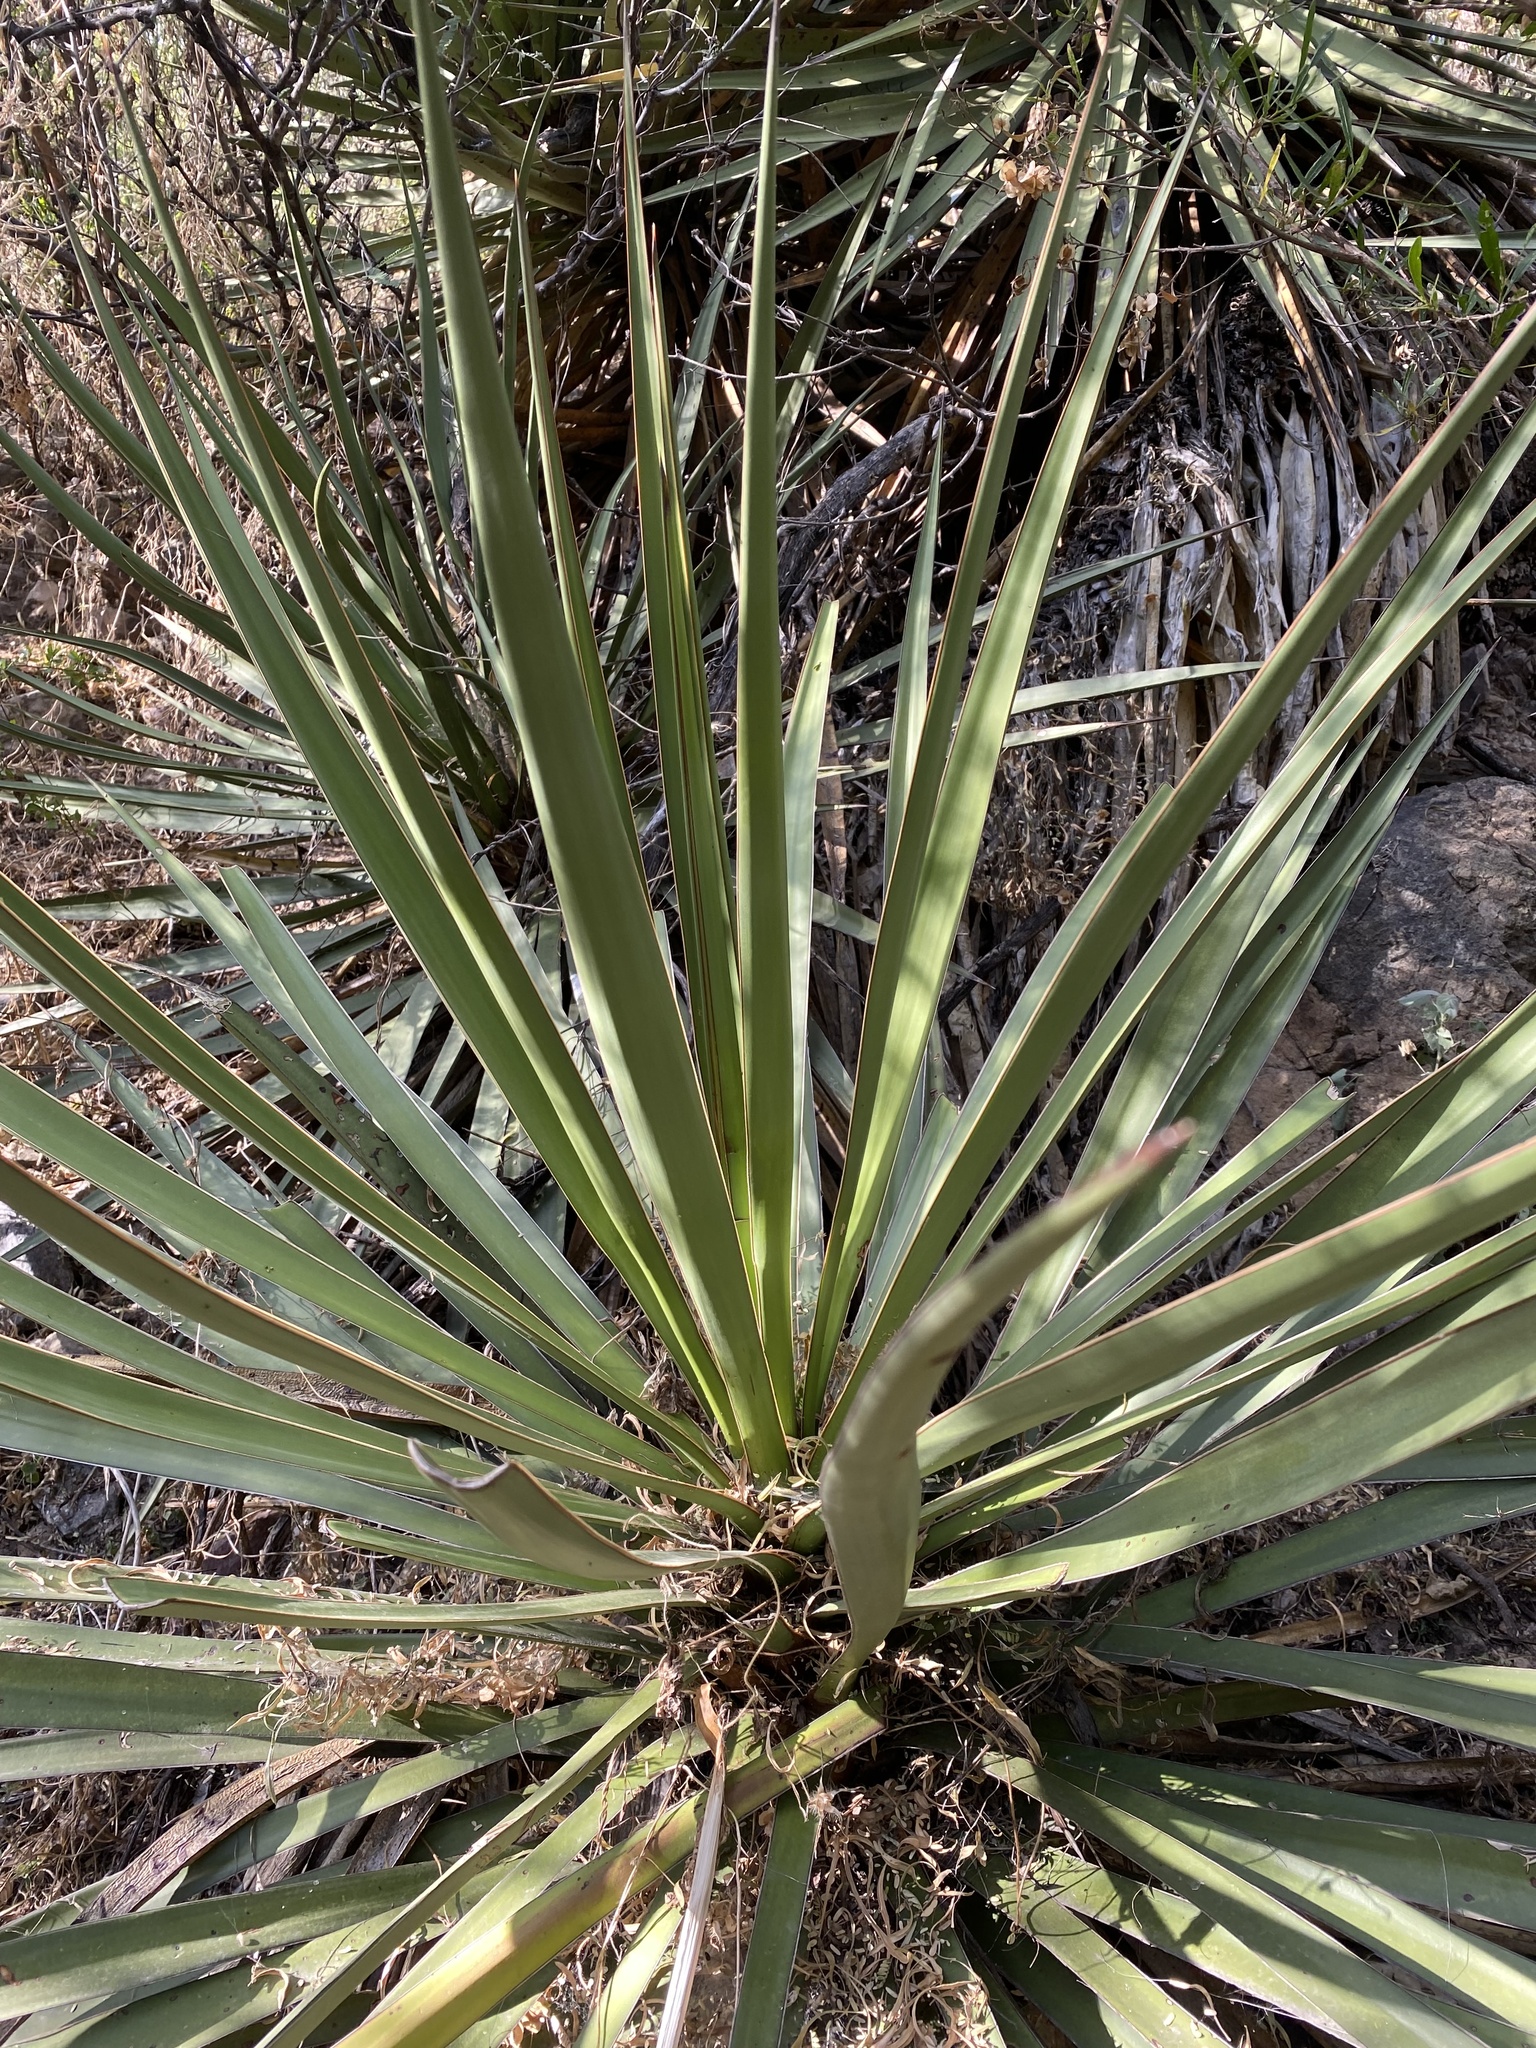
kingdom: Plantae
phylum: Tracheophyta
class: Liliopsida
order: Asparagales
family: Asparagaceae
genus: Yucca
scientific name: Yucca madrensis
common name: Hoary yucca
